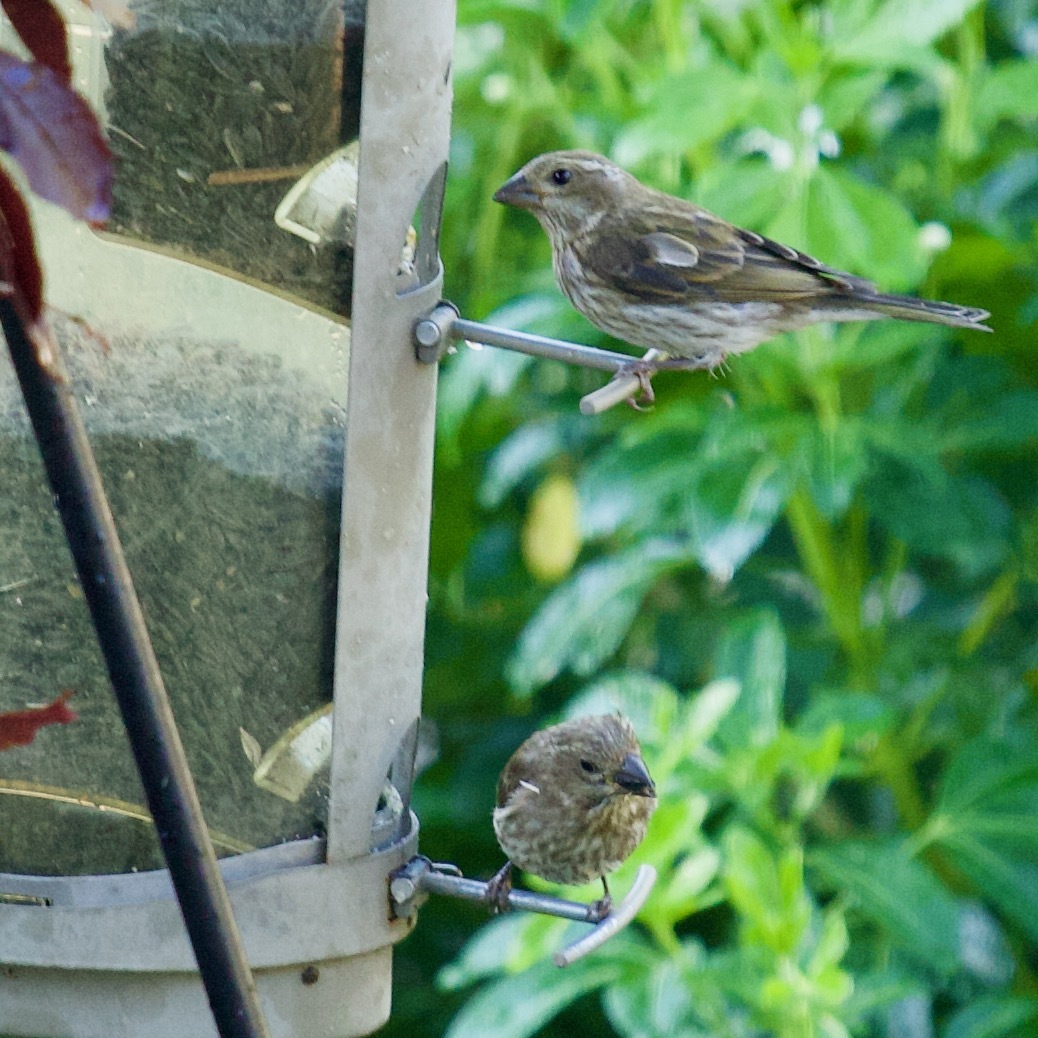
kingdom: Animalia
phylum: Chordata
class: Aves
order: Passeriformes
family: Fringillidae
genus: Haemorhous
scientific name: Haemorhous purpureus
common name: Purple finch
